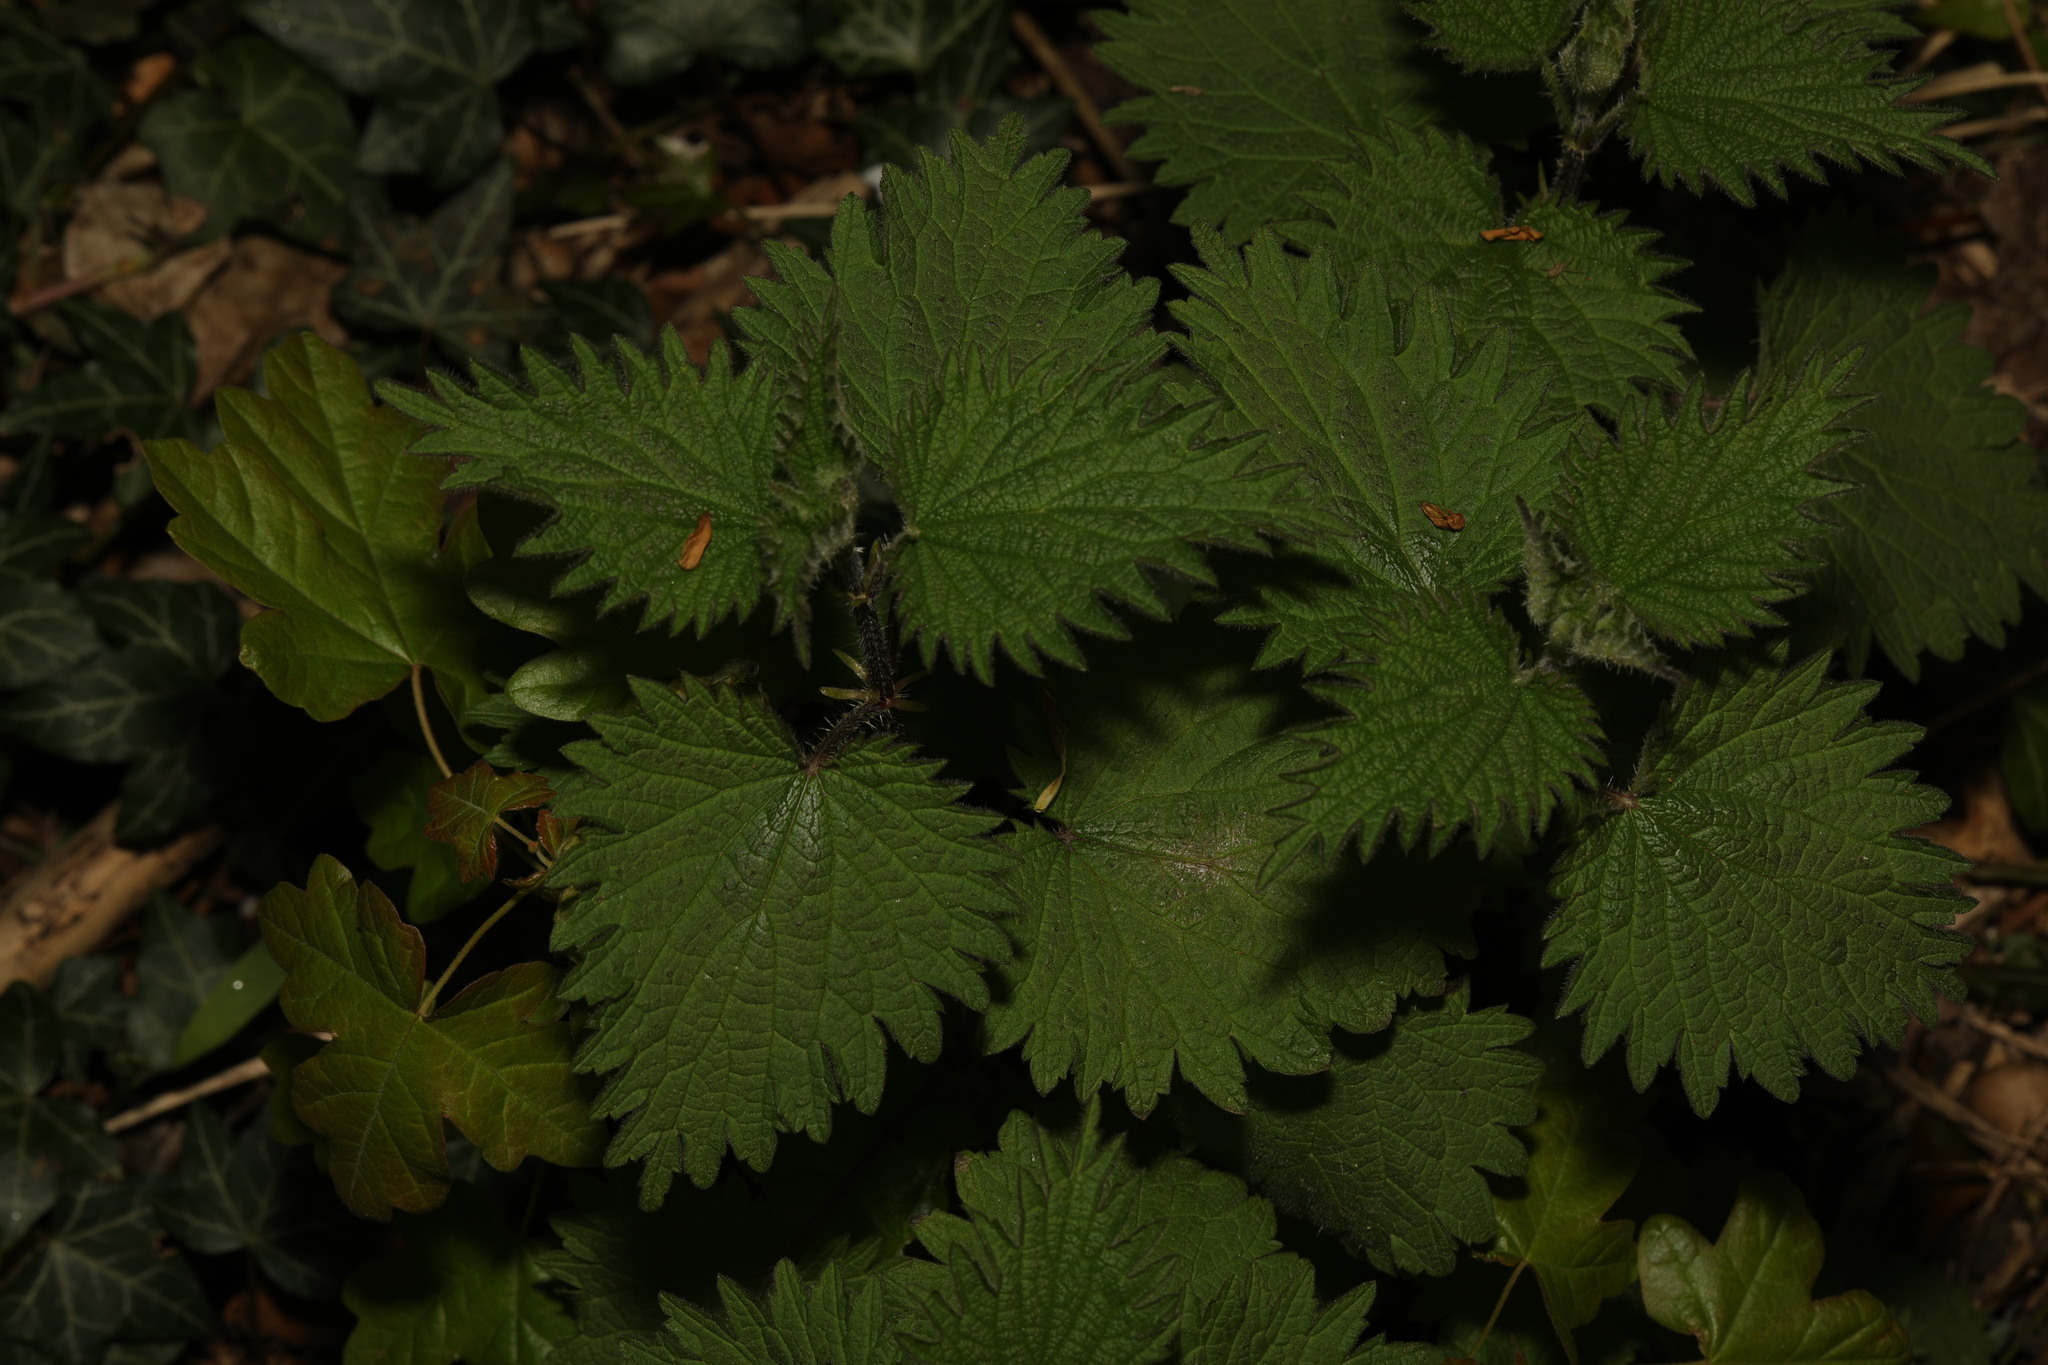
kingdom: Plantae
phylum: Tracheophyta
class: Magnoliopsida
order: Rosales
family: Urticaceae
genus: Urtica
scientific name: Urtica dioica
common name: Common nettle
